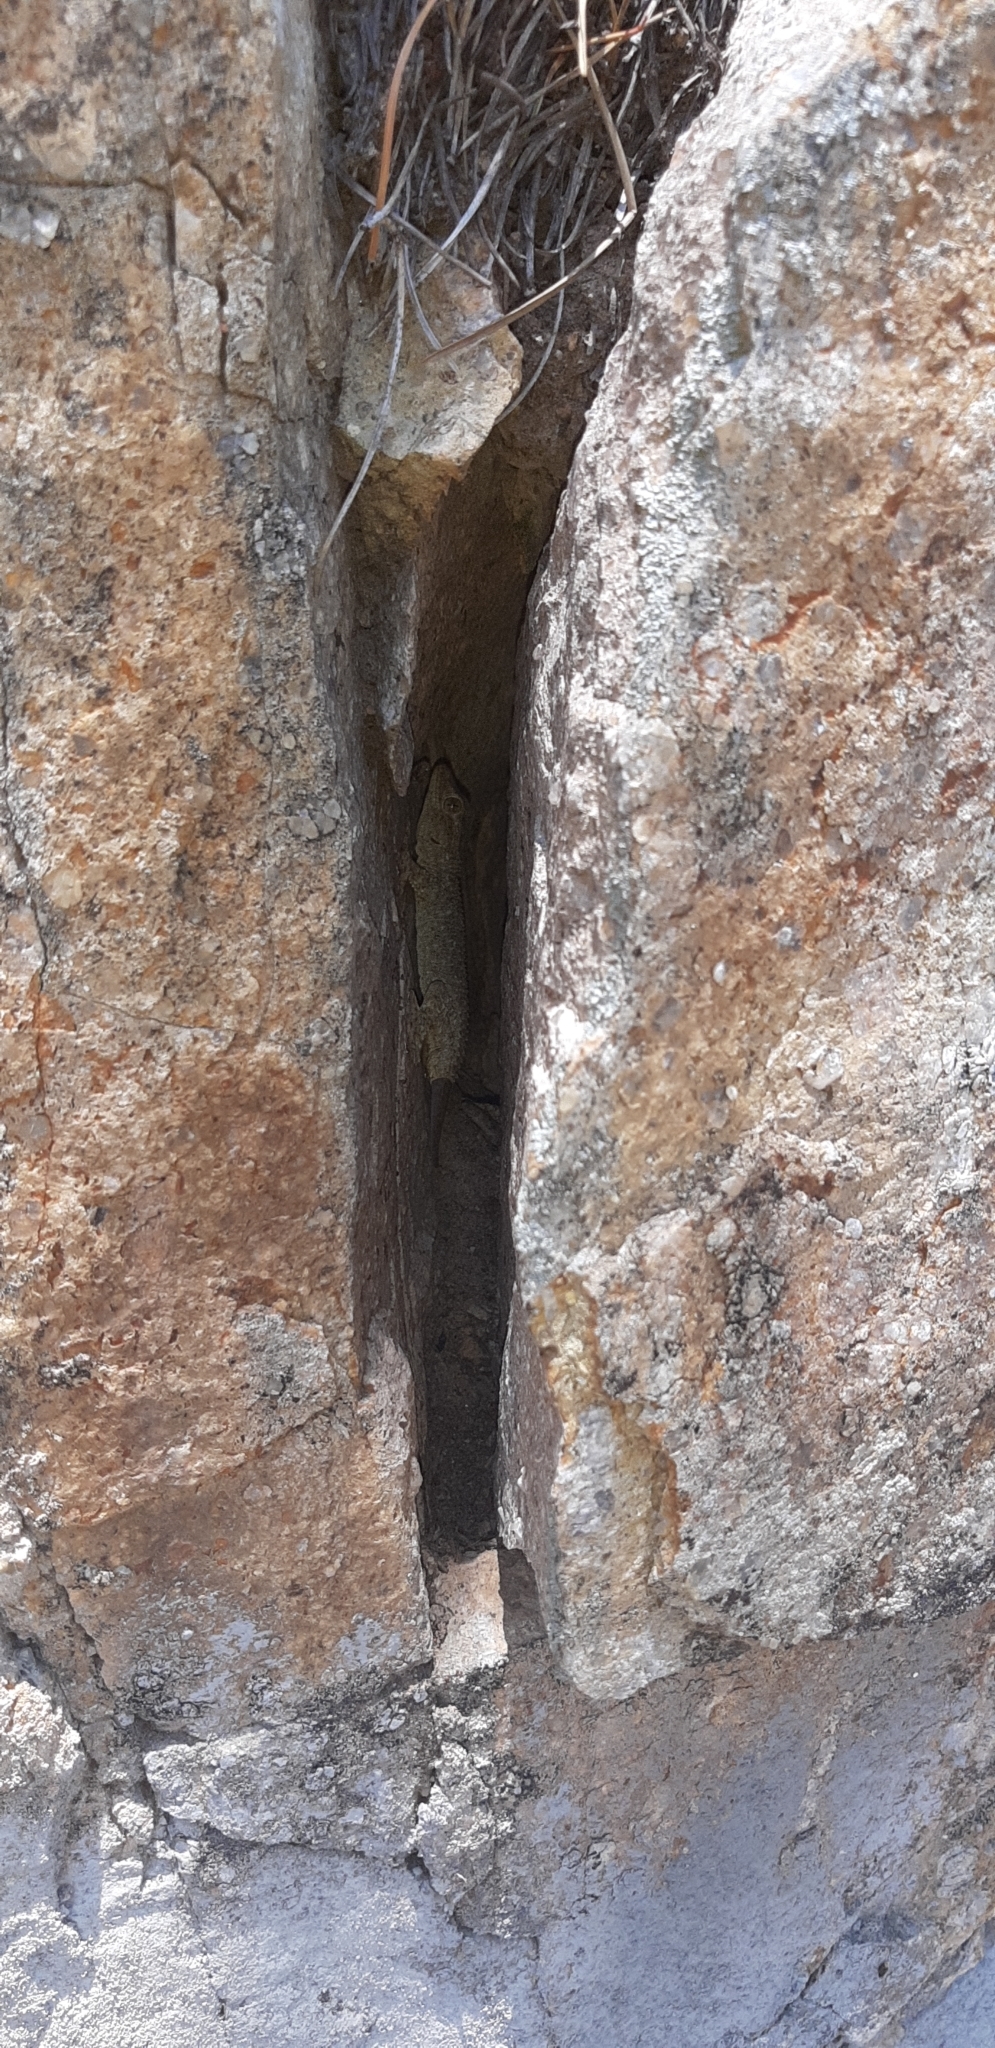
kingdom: Animalia
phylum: Chordata
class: Squamata
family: Phyllodactylidae
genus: Tarentola
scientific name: Tarentola mauritanica
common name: Moorish gecko
